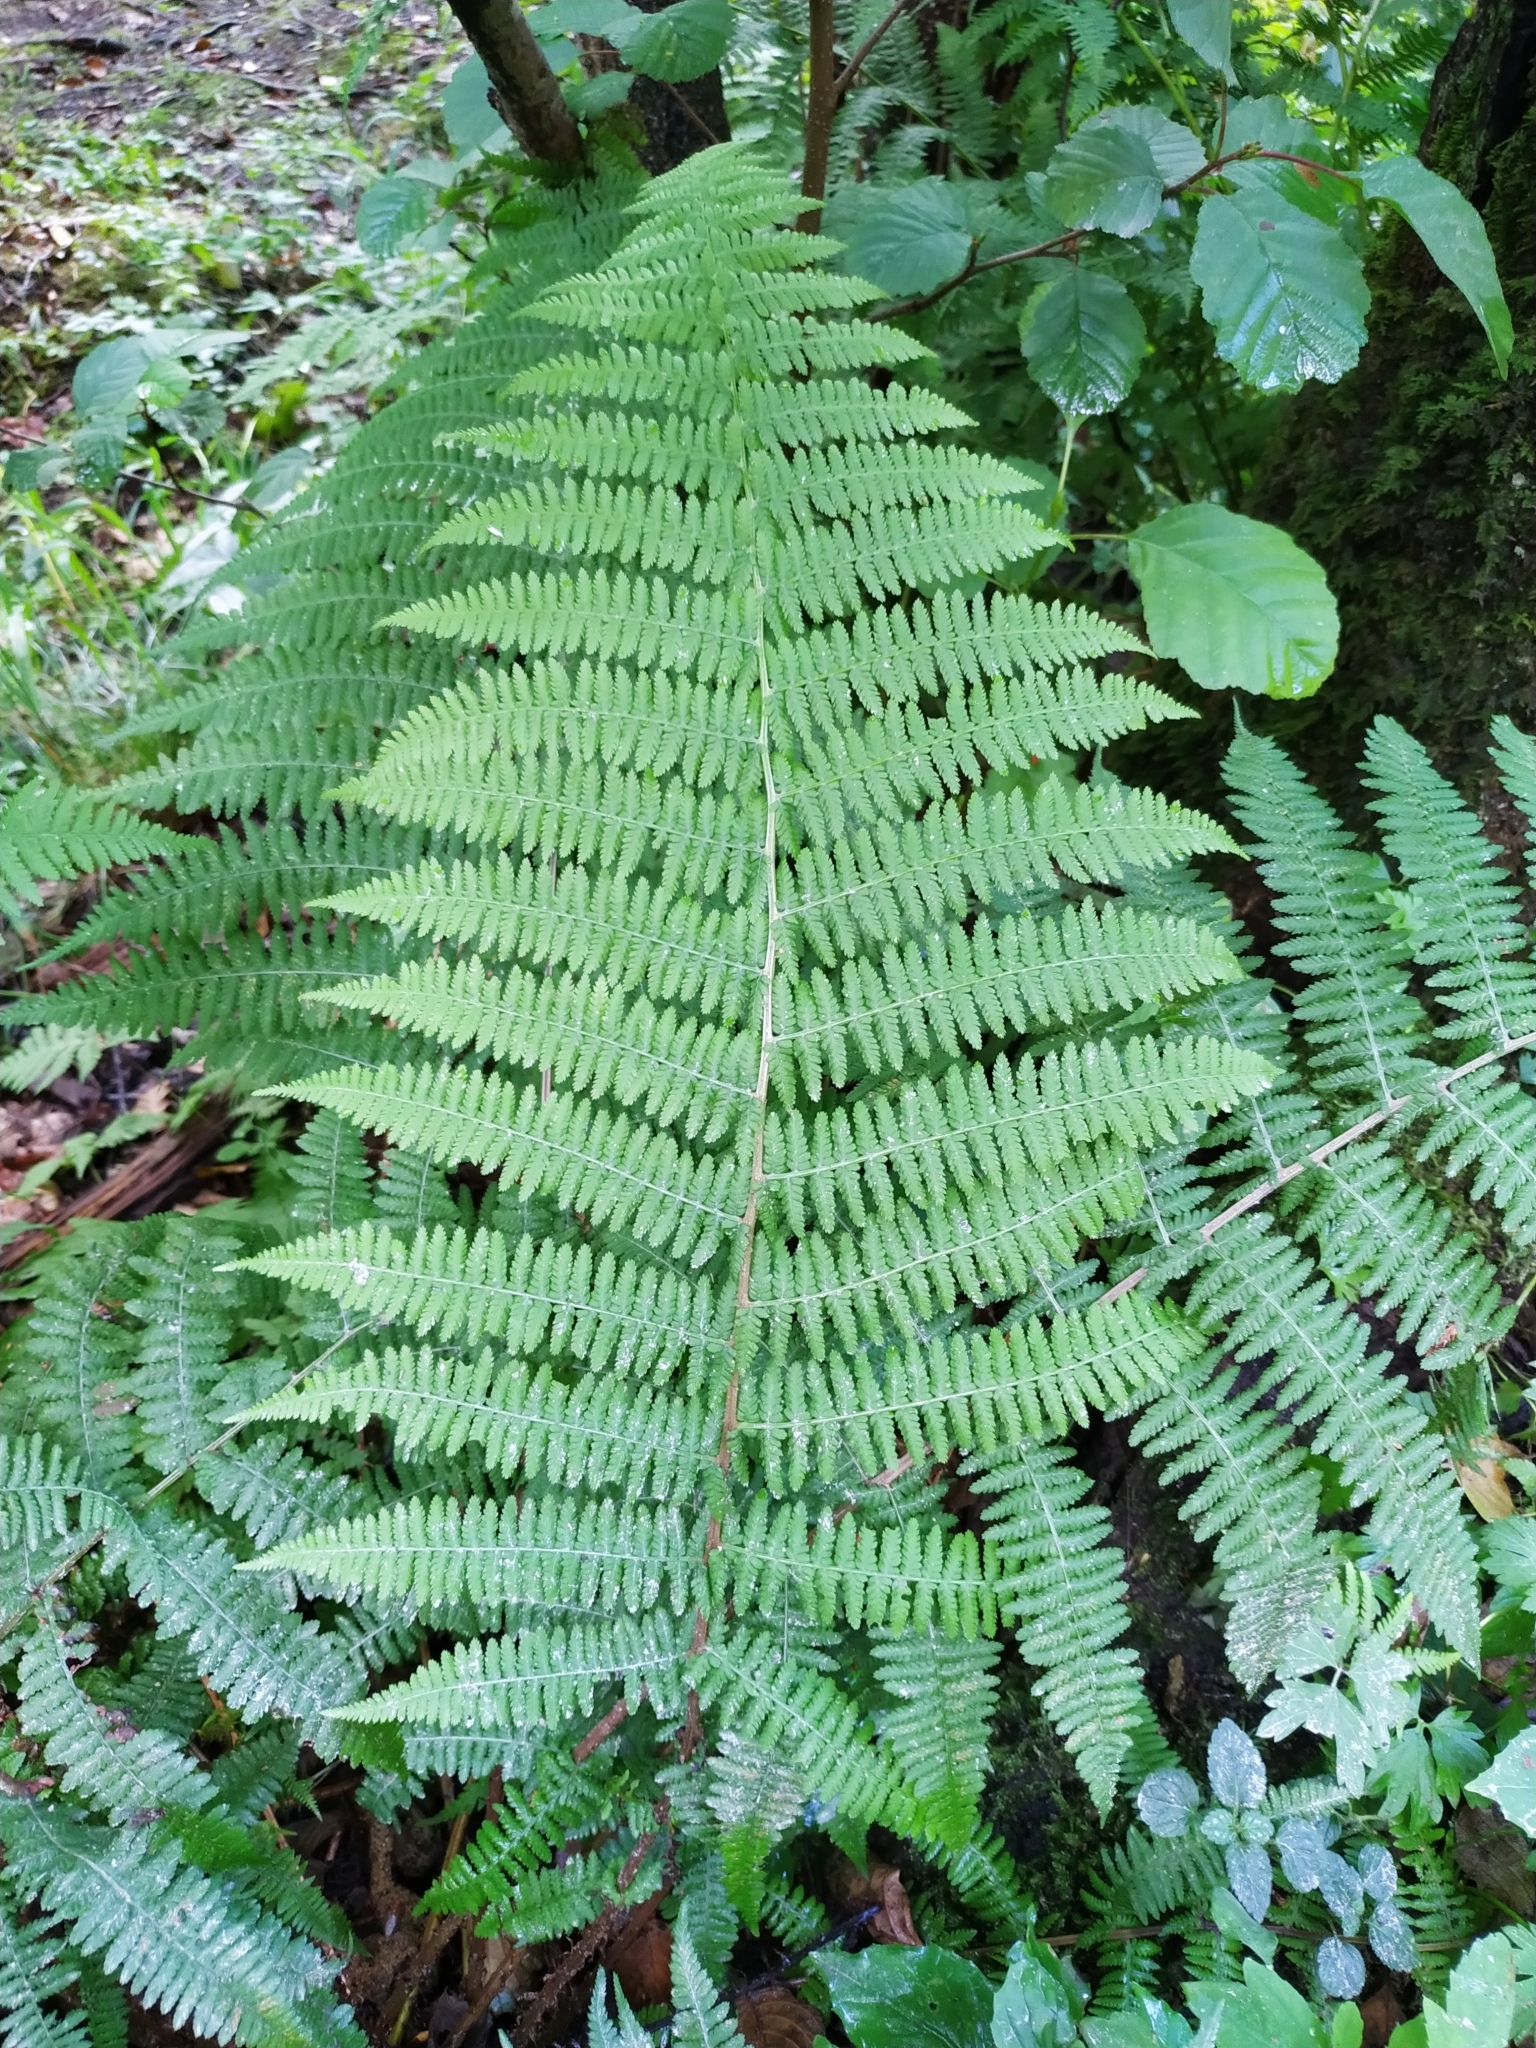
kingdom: Plantae
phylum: Tracheophyta
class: Polypodiopsida
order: Polypodiales
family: Athyriaceae
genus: Athyrium
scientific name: Athyrium filix-femina
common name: Lady fern
